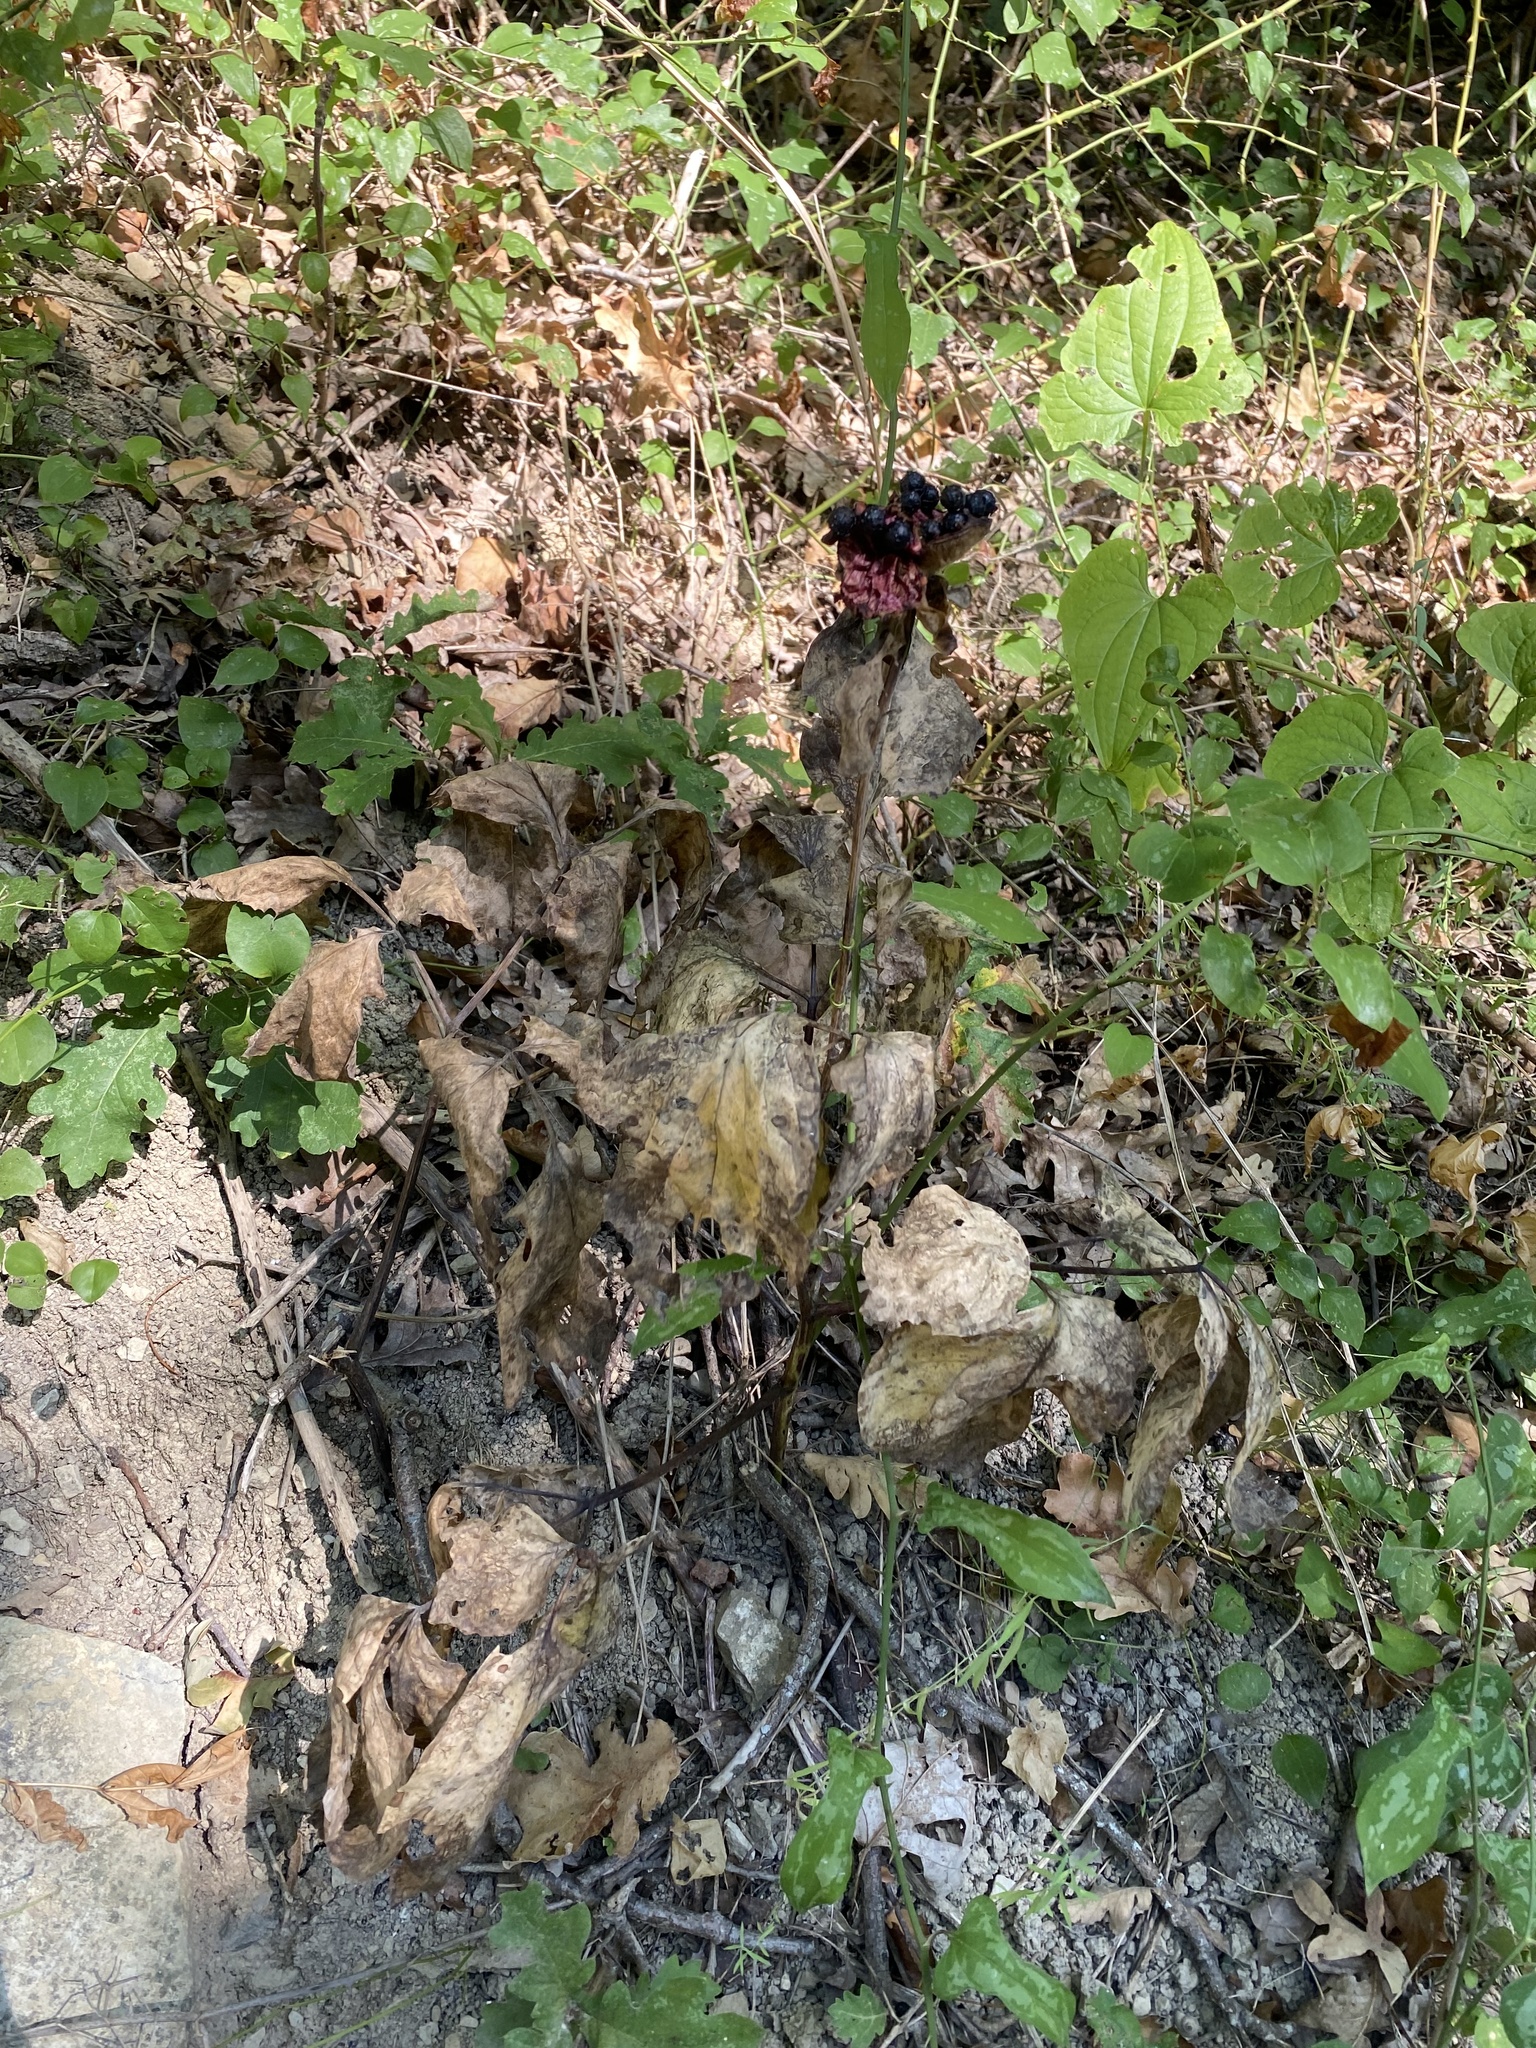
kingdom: Plantae
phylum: Tracheophyta
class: Magnoliopsida
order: Saxifragales
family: Paeoniaceae
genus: Paeonia
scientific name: Paeonia caucasica
